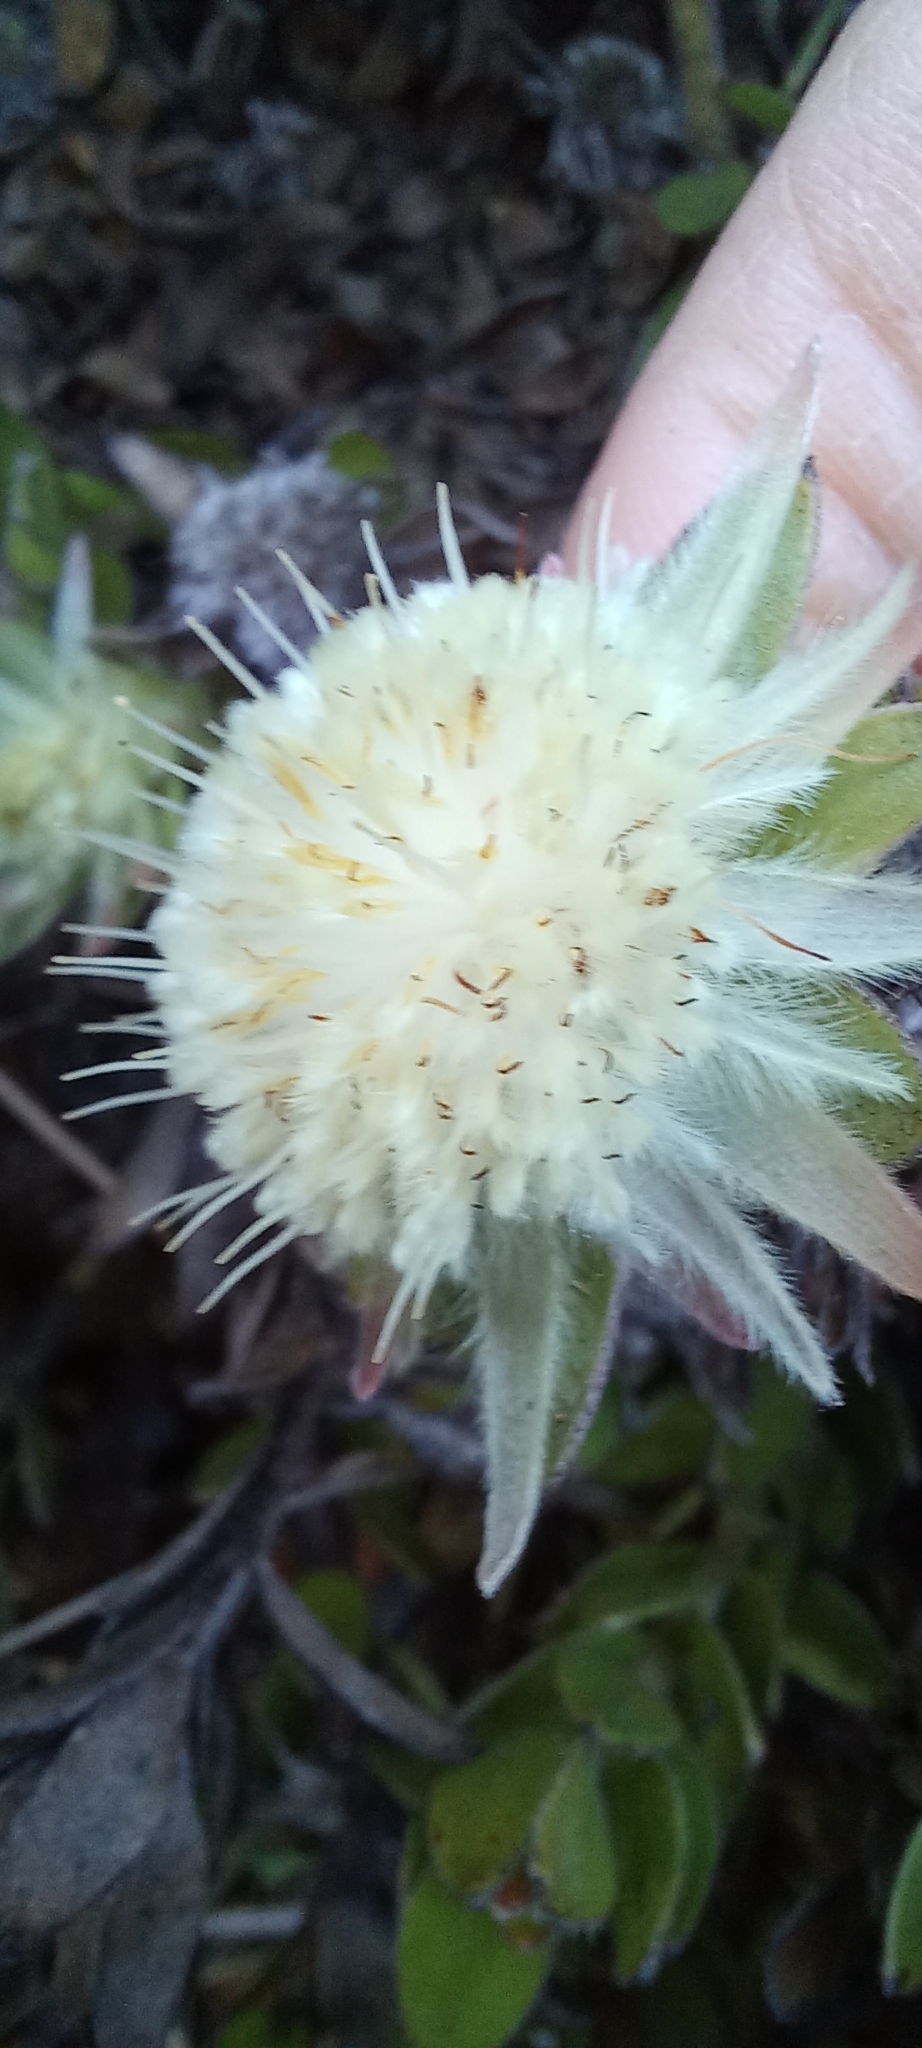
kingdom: Plantae
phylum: Tracheophyta
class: Magnoliopsida
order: Proteales
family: Proteaceae
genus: Diastella
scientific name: Diastella thymelaeoides
